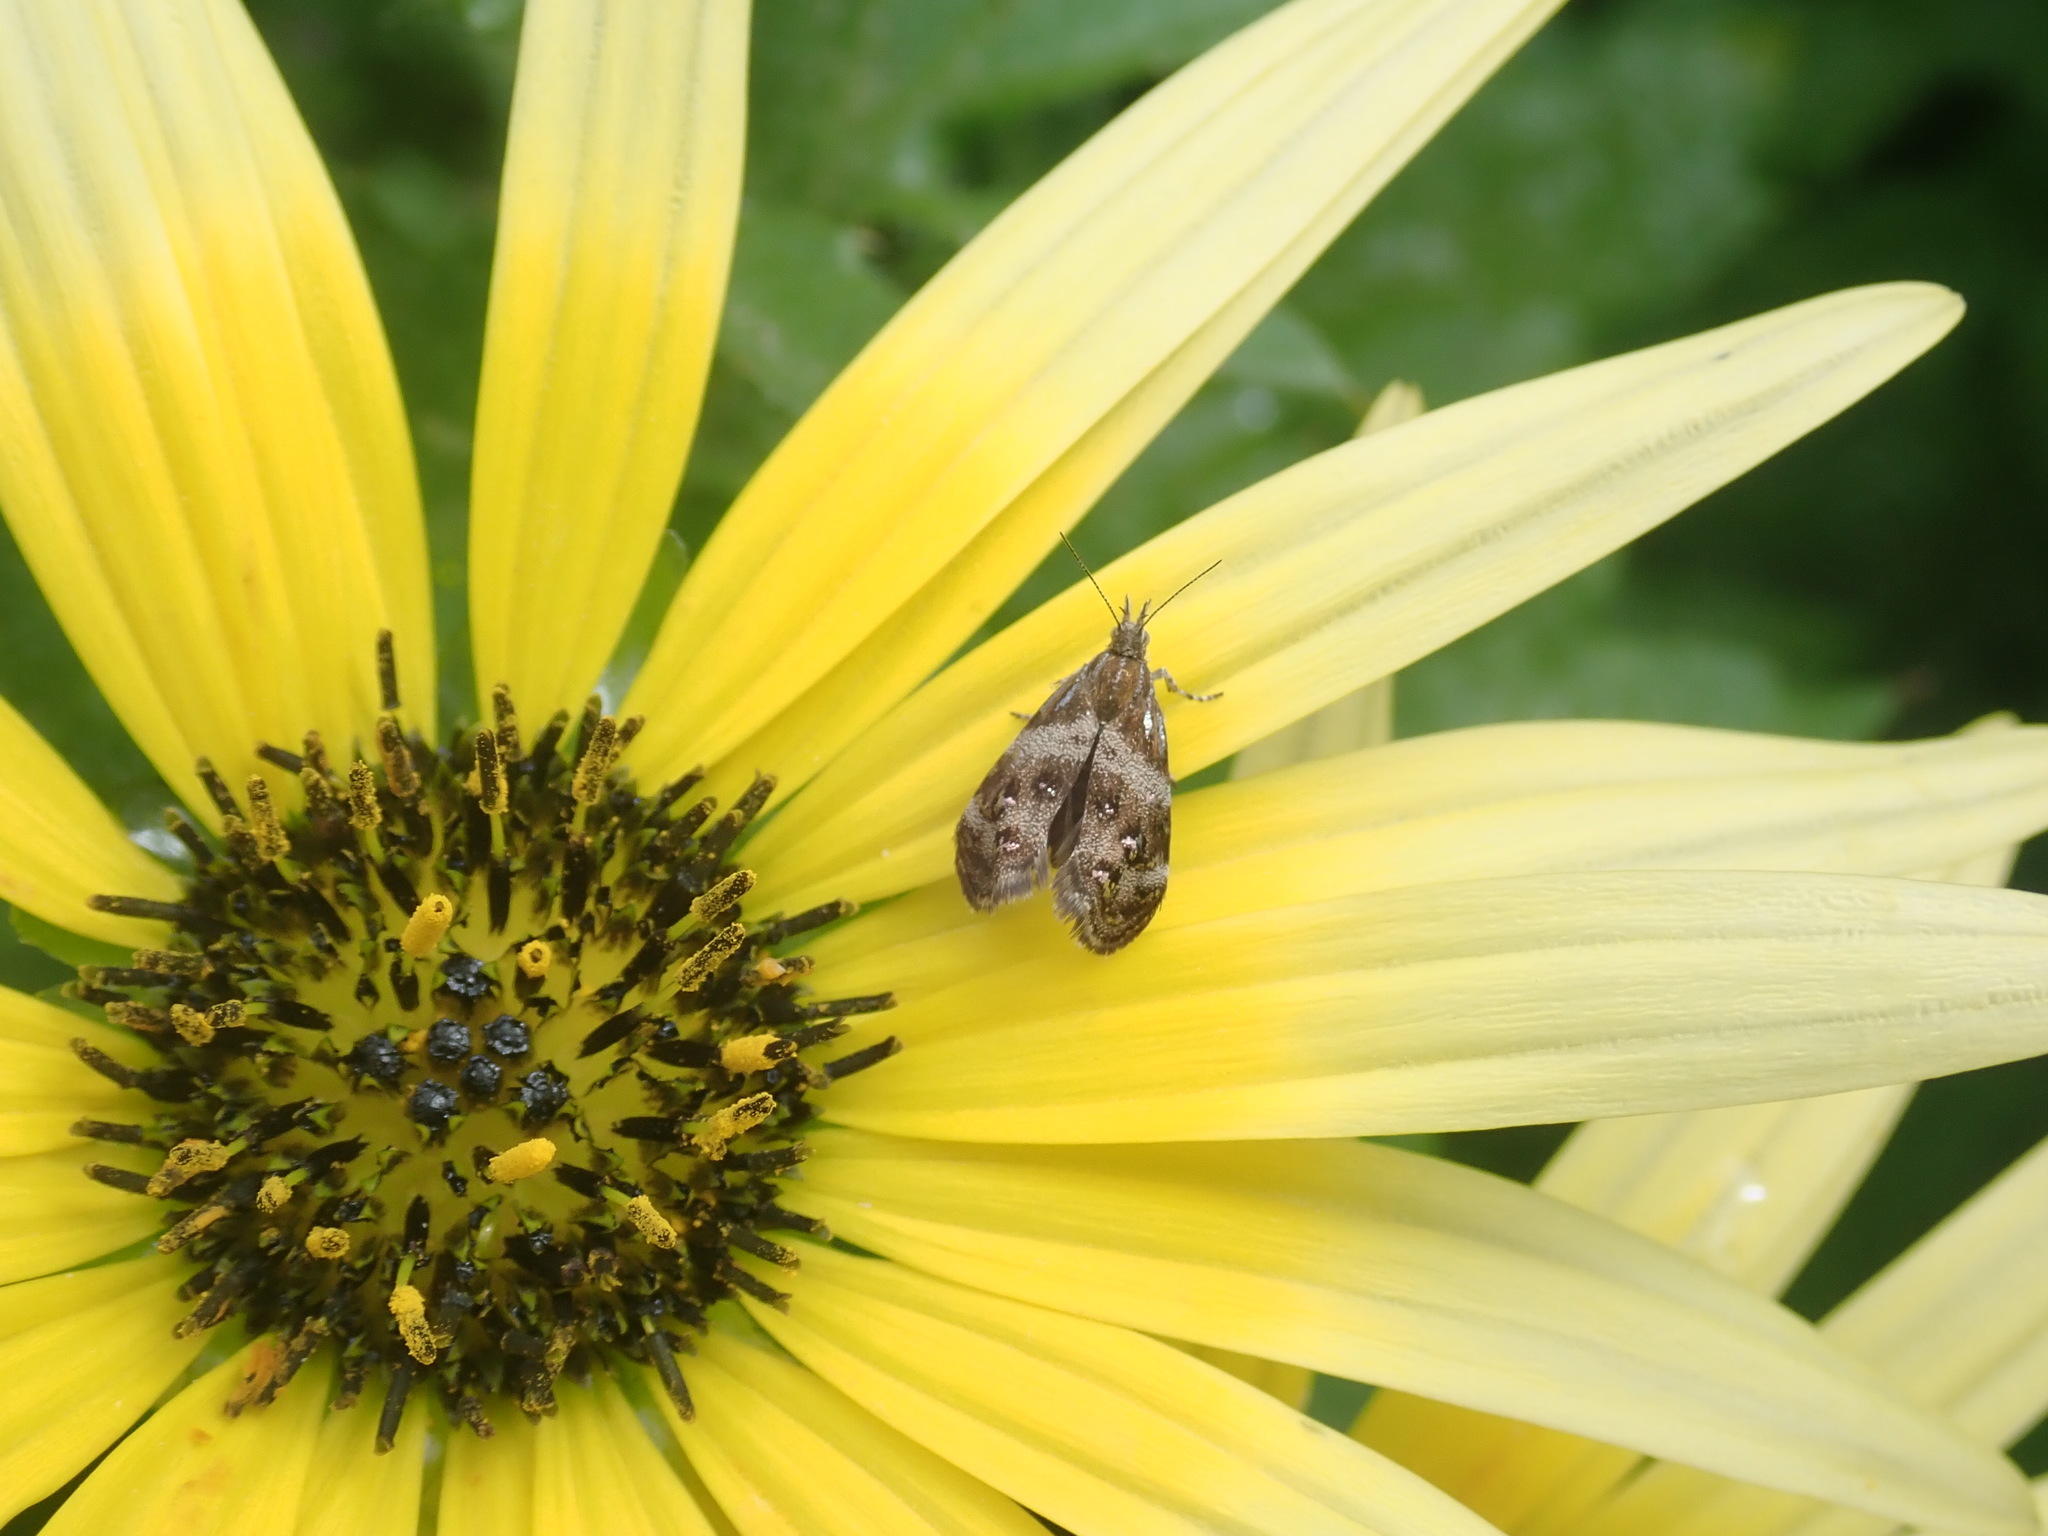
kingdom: Animalia
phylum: Arthropoda
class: Insecta
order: Lepidoptera
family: Choreutidae
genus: Tebenna
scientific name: Tebenna micalis
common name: Vagrant twitcher
